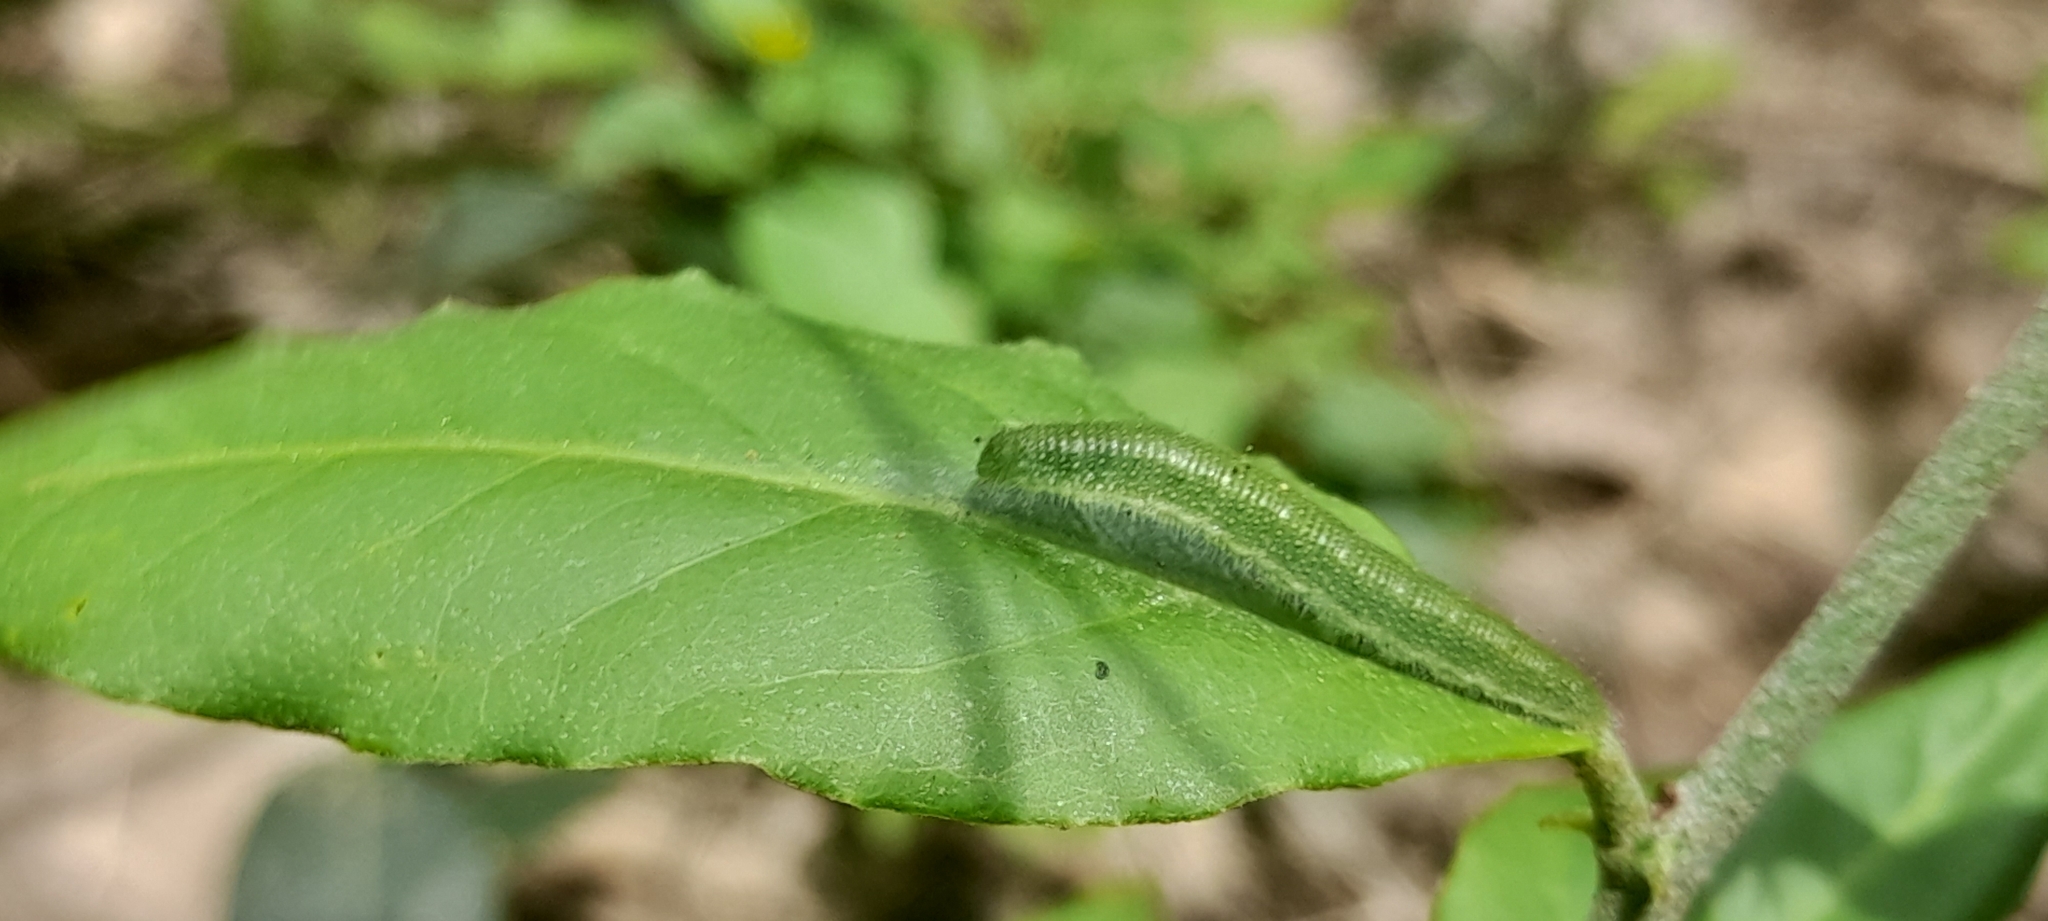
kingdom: Animalia
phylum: Arthropoda
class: Insecta
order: Lepidoptera
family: Pieridae
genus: Cepora
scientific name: Cepora nerissa
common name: Common gull
